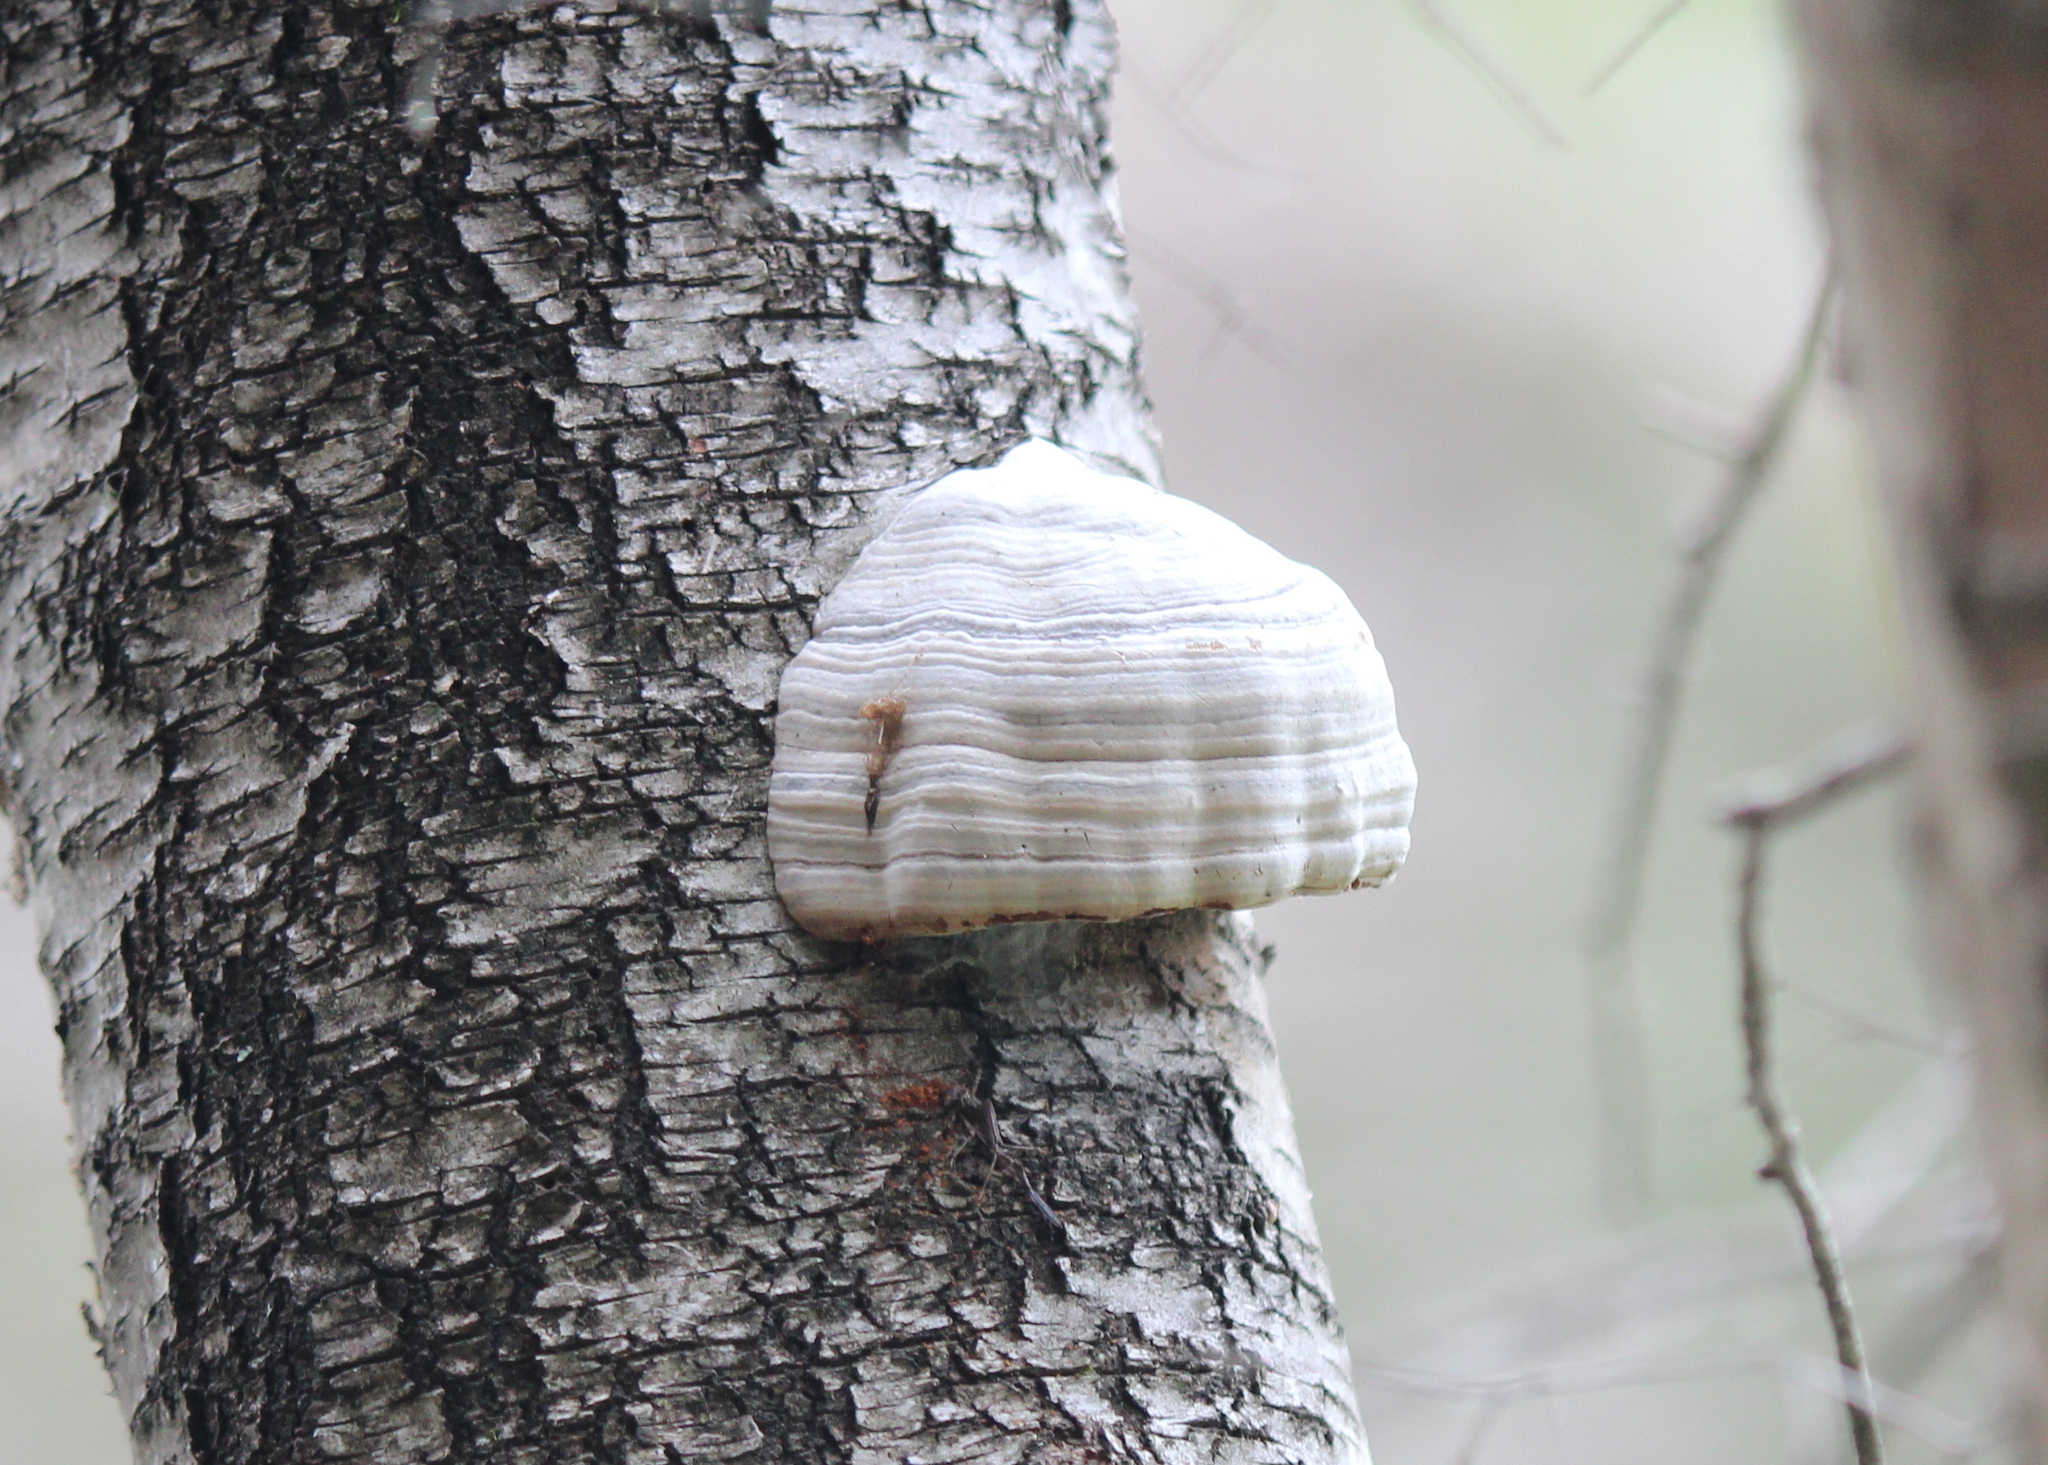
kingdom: Fungi
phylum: Basidiomycota
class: Agaricomycetes
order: Polyporales
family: Polyporaceae
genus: Fomes
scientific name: Fomes fomentarius
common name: Hoof fungus
